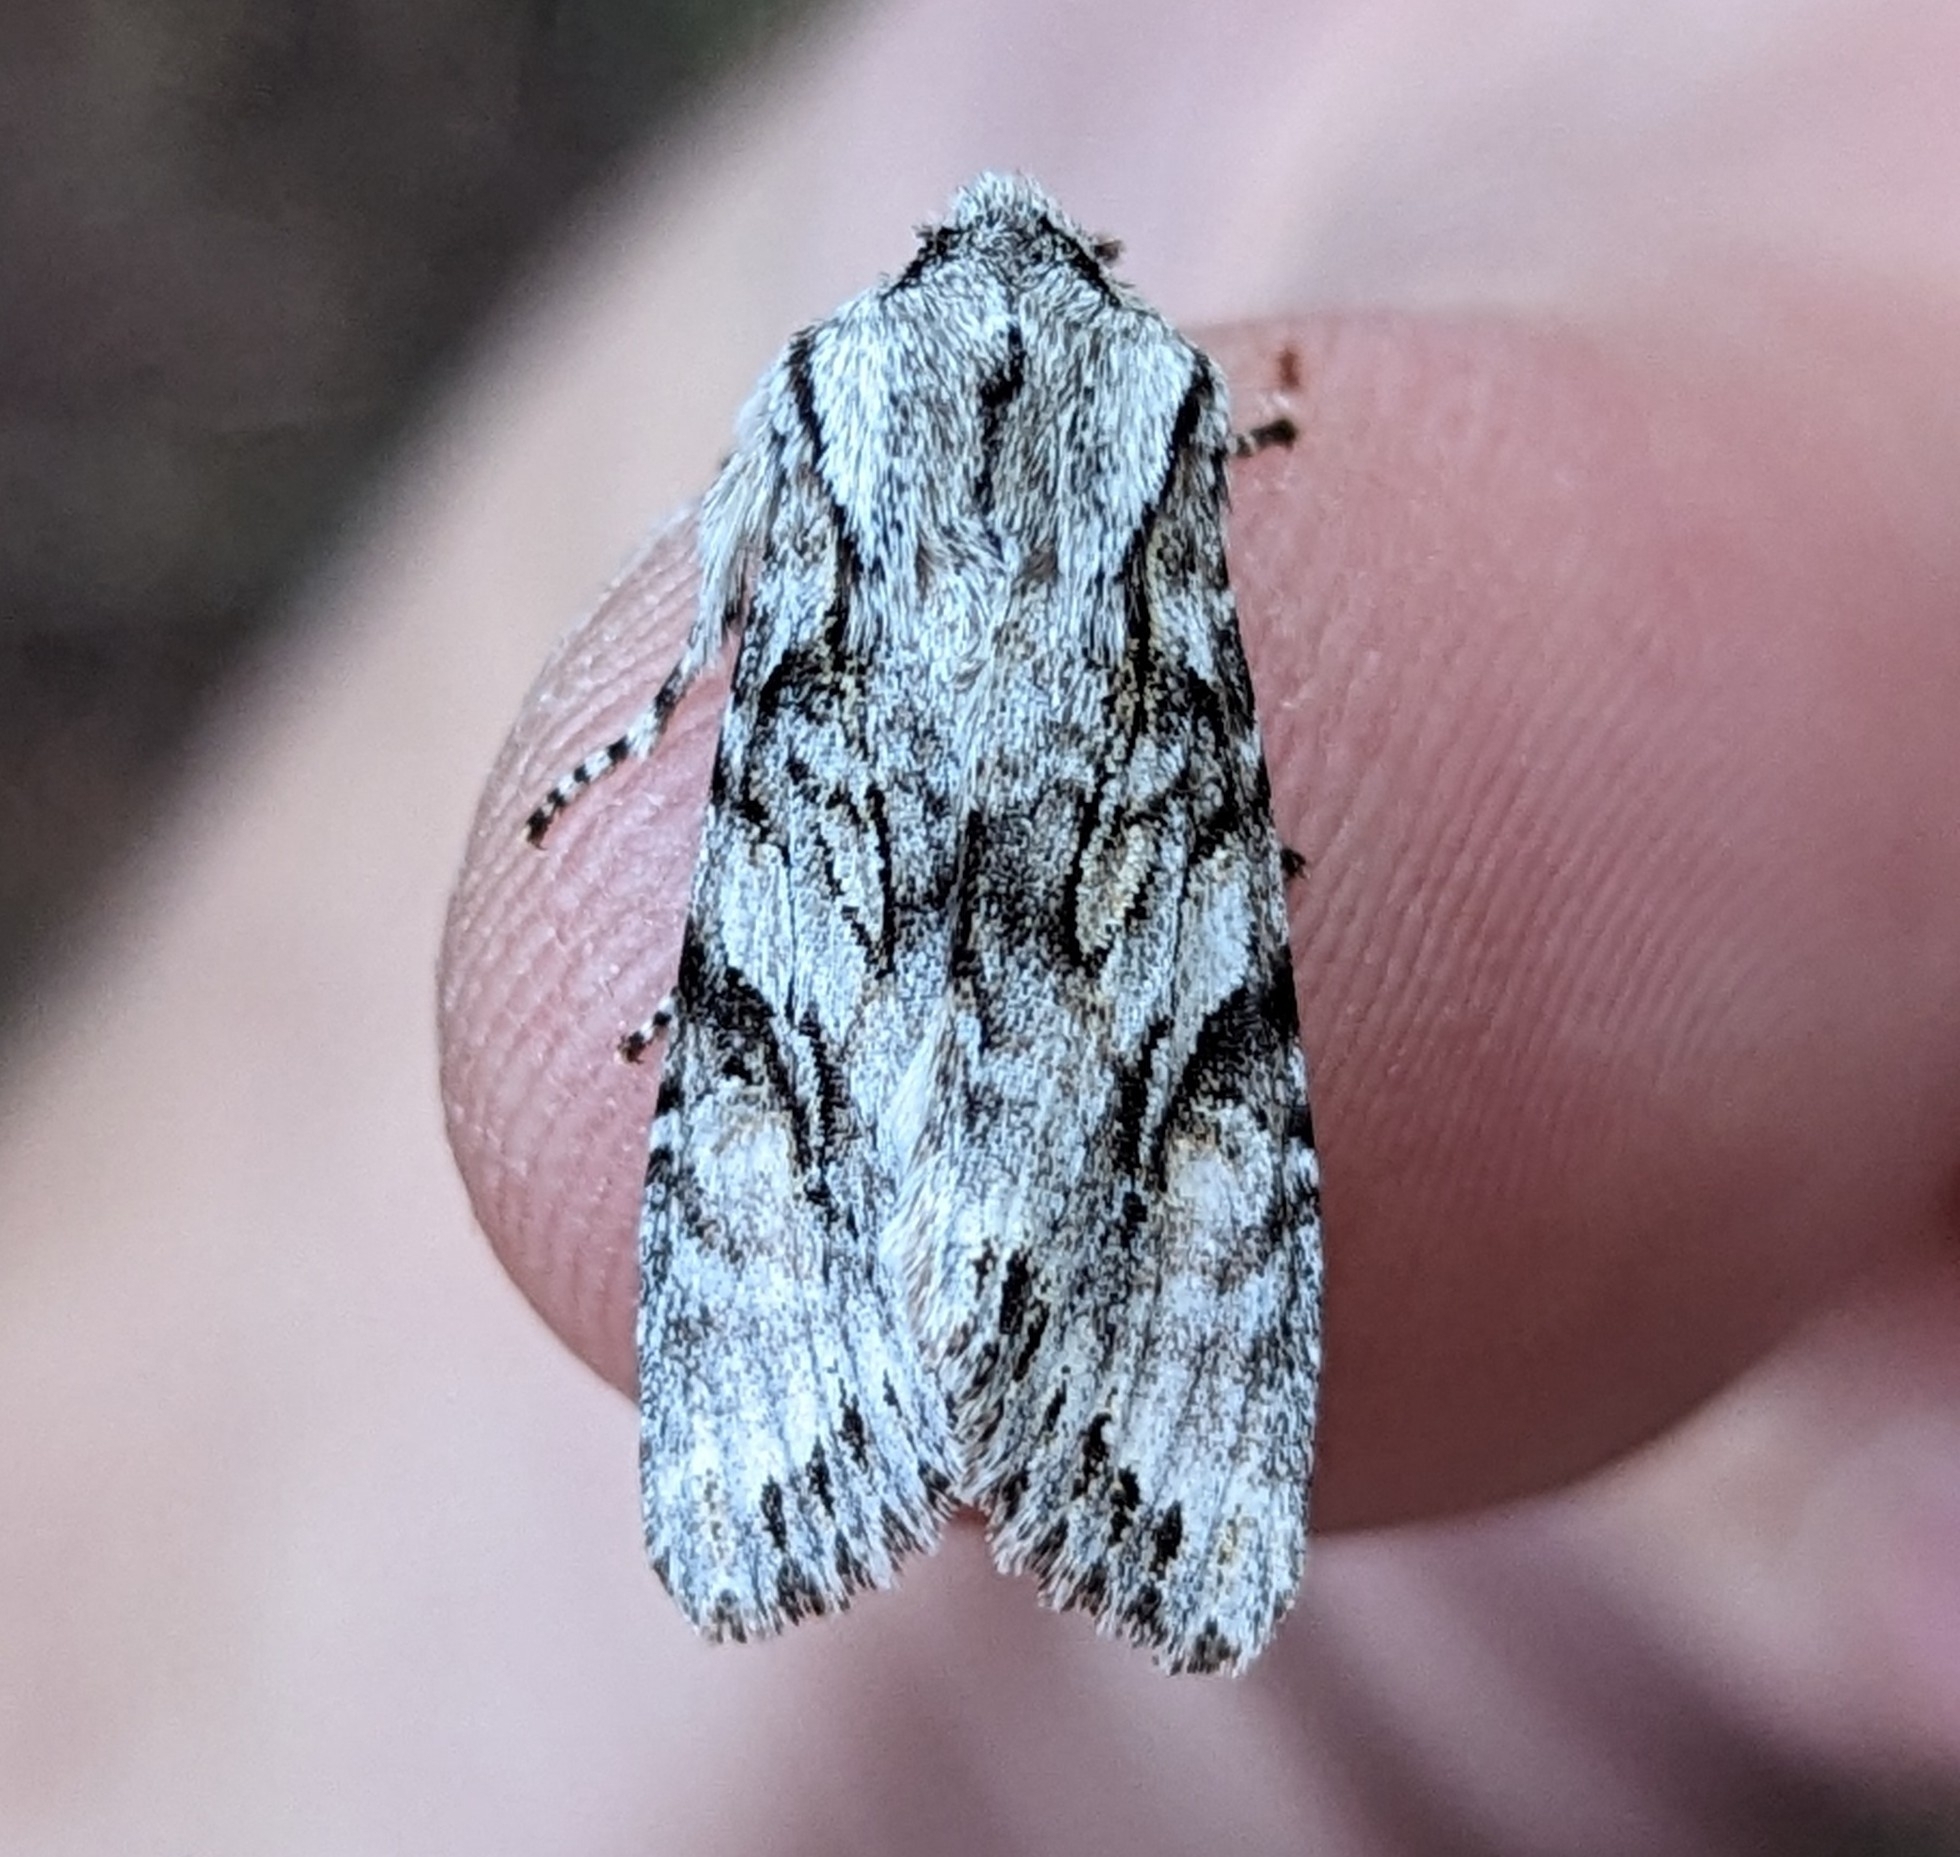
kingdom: Animalia
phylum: Arthropoda
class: Insecta
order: Lepidoptera
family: Noctuidae
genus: Egira
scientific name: Egira simplex
